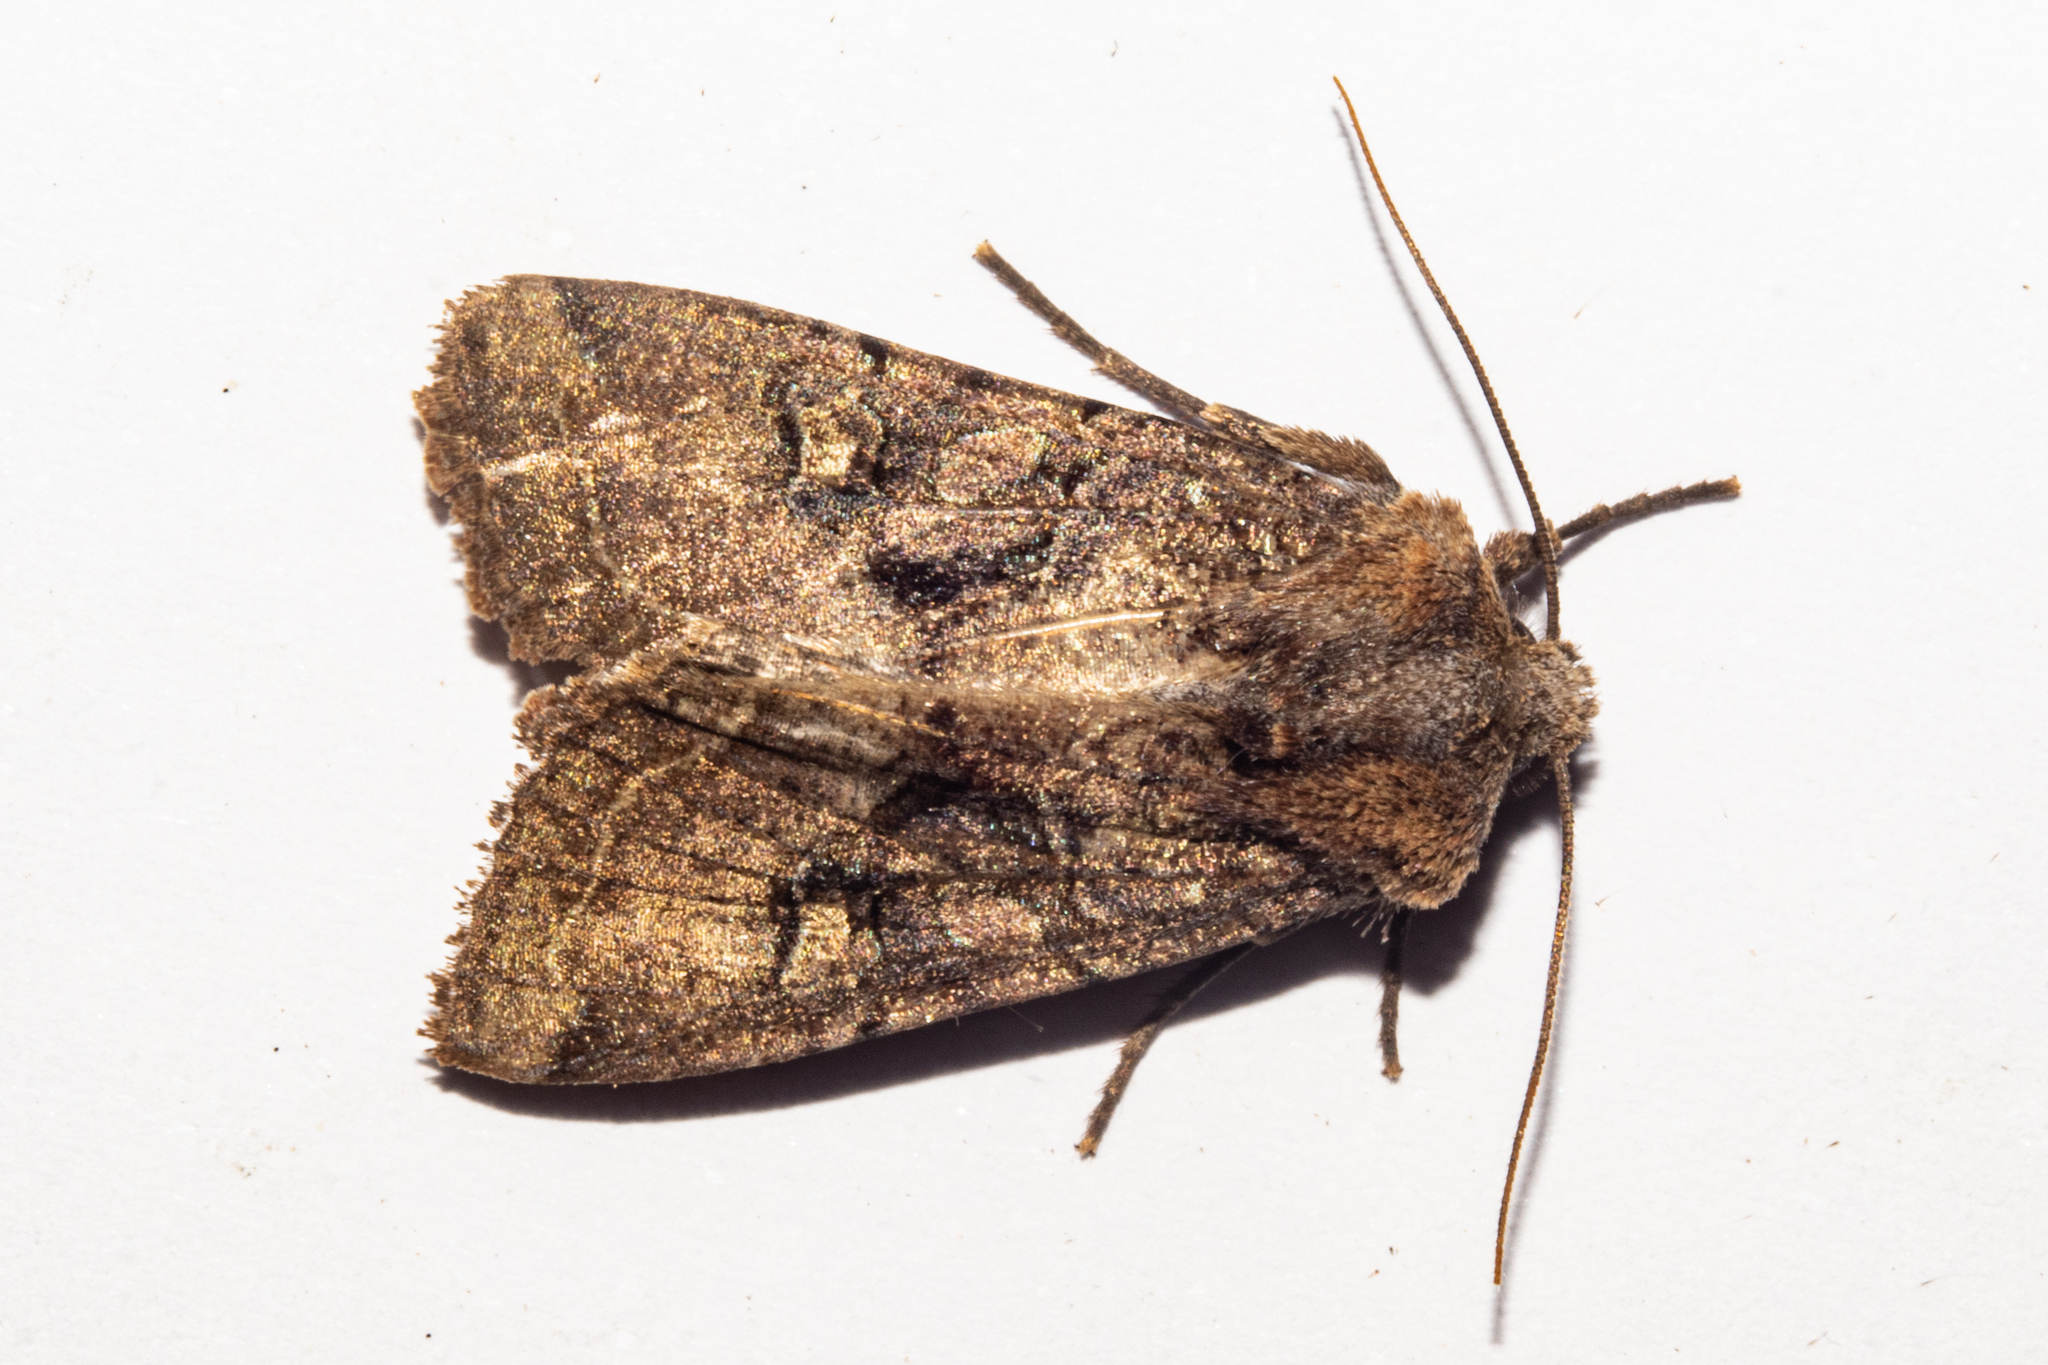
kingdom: Animalia
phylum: Arthropoda
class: Insecta
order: Lepidoptera
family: Noctuidae
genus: Meterana
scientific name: Meterana tartaraea
